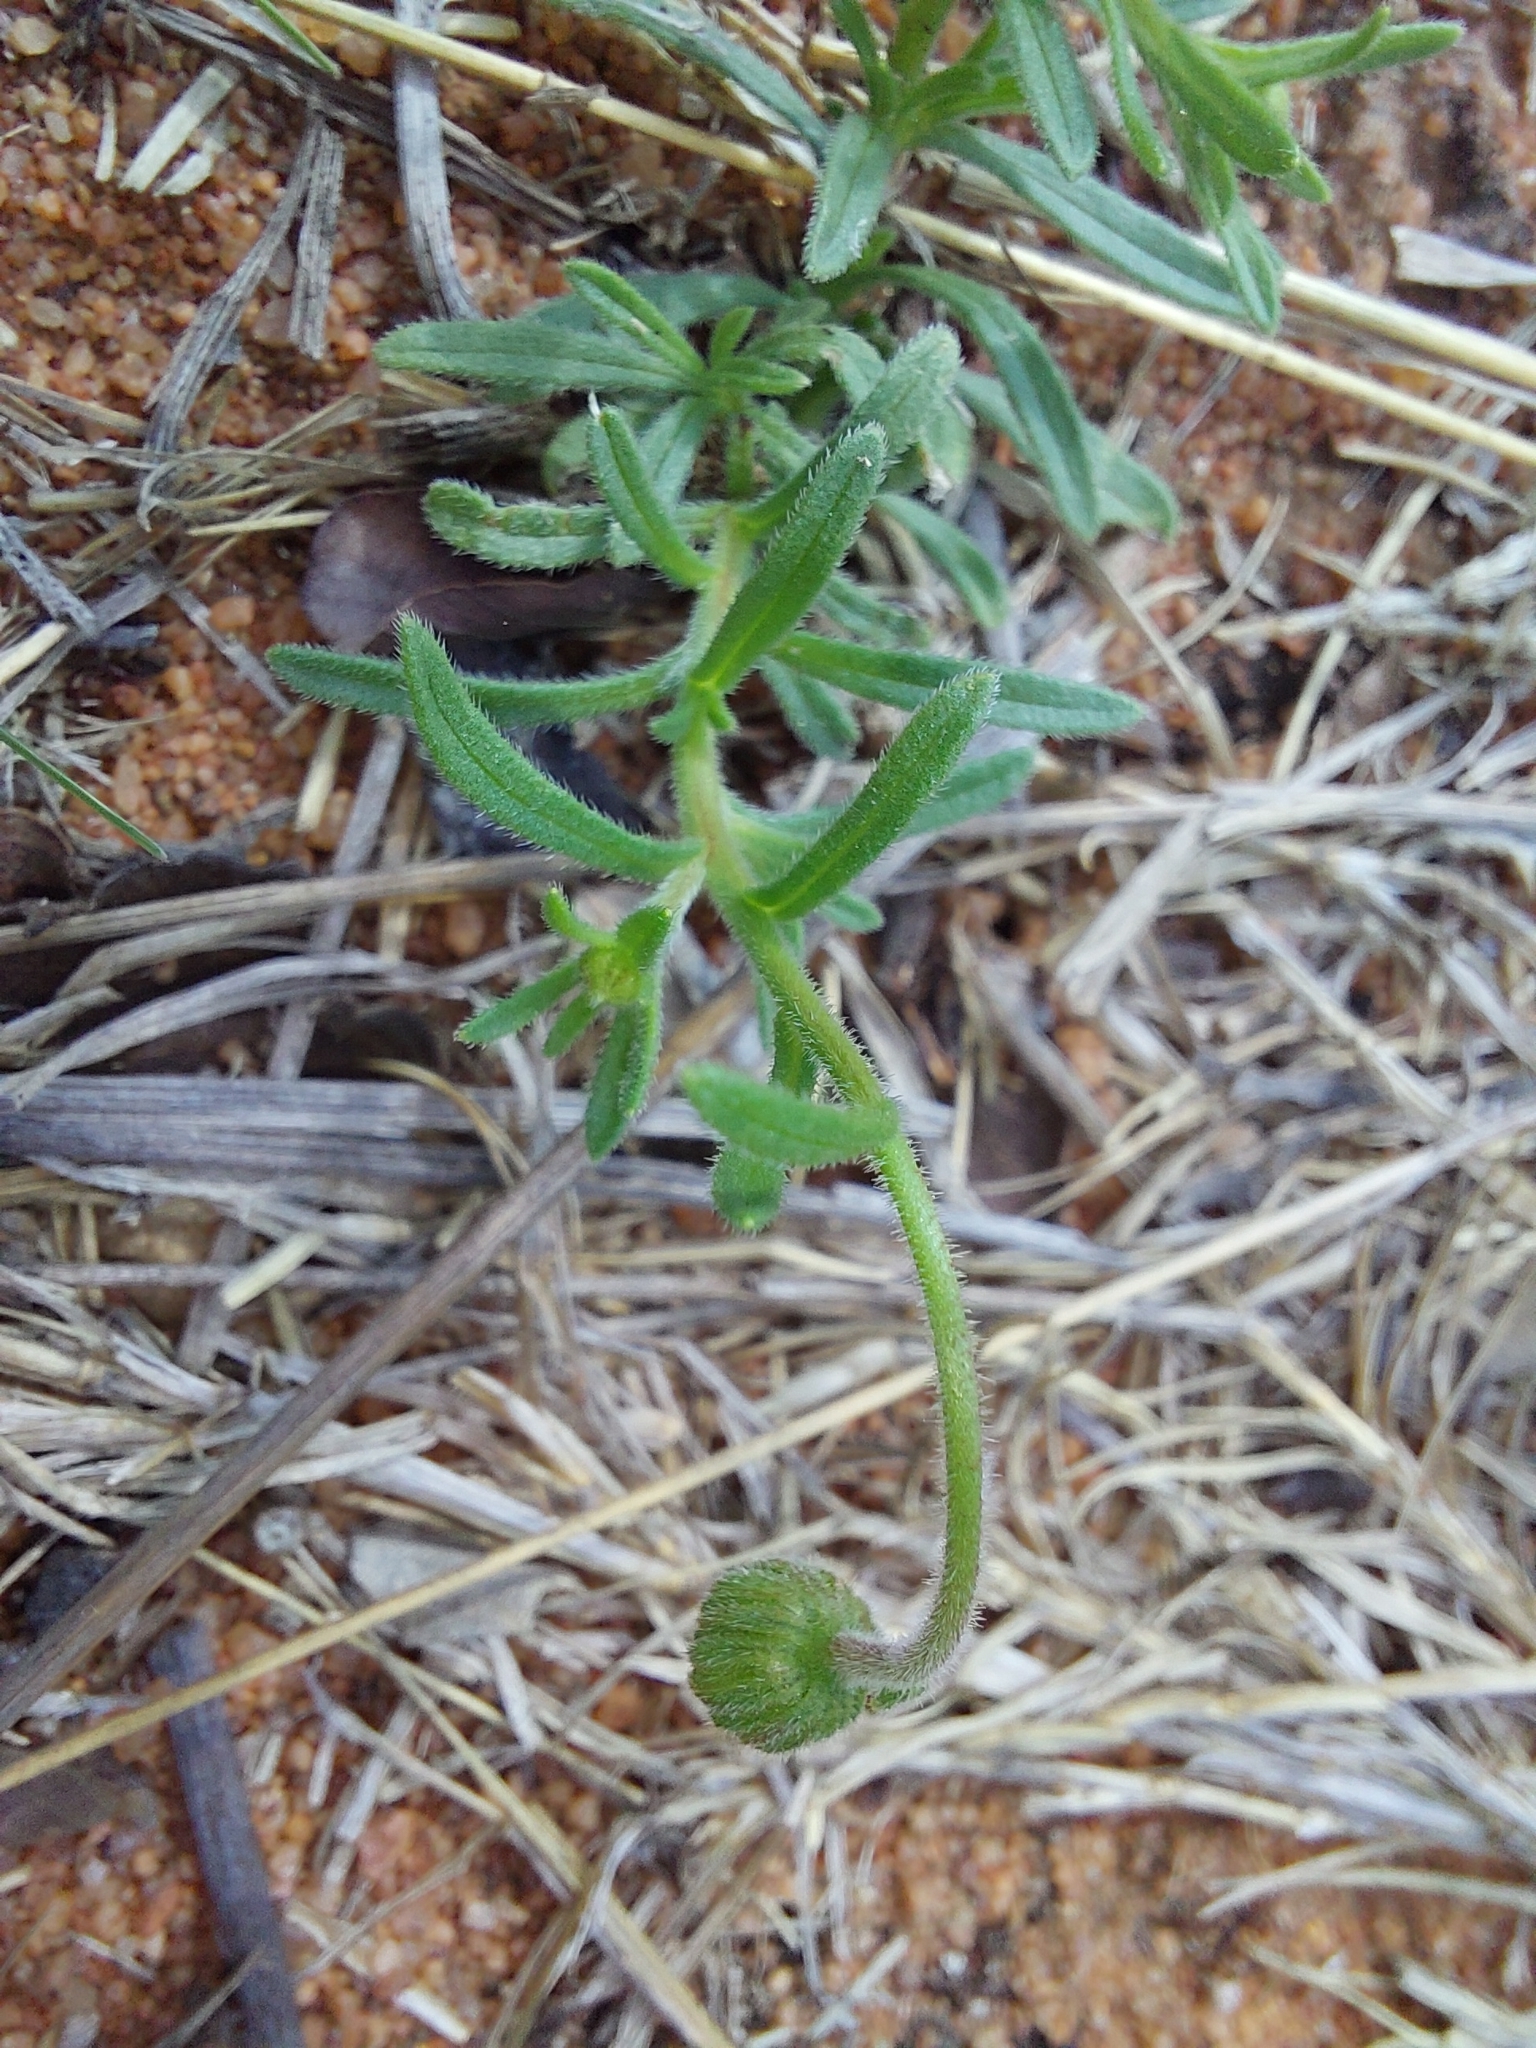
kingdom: Plantae
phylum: Tracheophyta
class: Magnoliopsida
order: Asterales
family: Asteraceae
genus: Felicia
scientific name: Felicia mossamedensis
